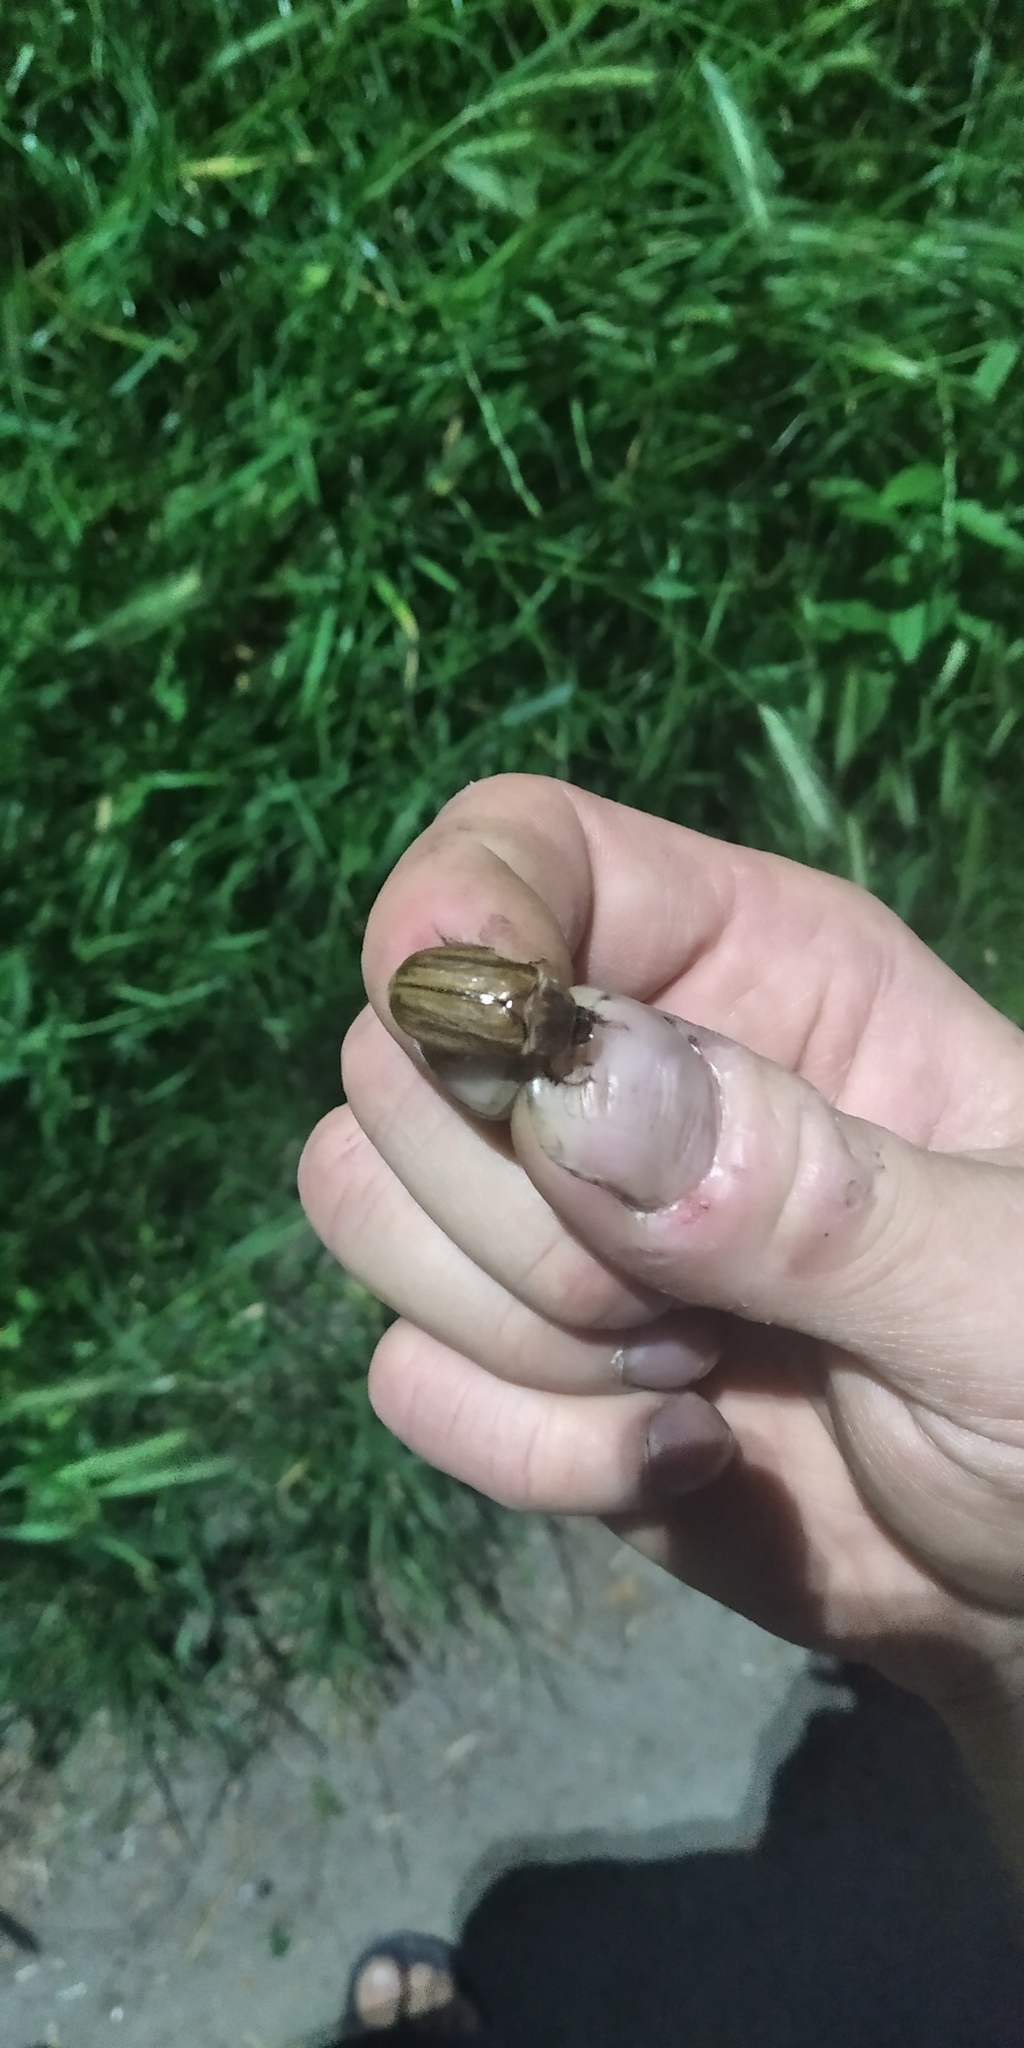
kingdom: Animalia
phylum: Arthropoda
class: Insecta
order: Coleoptera
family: Scarabaeidae
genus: Amphimallon
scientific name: Amphimallon solstitiale
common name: Summer chafer
